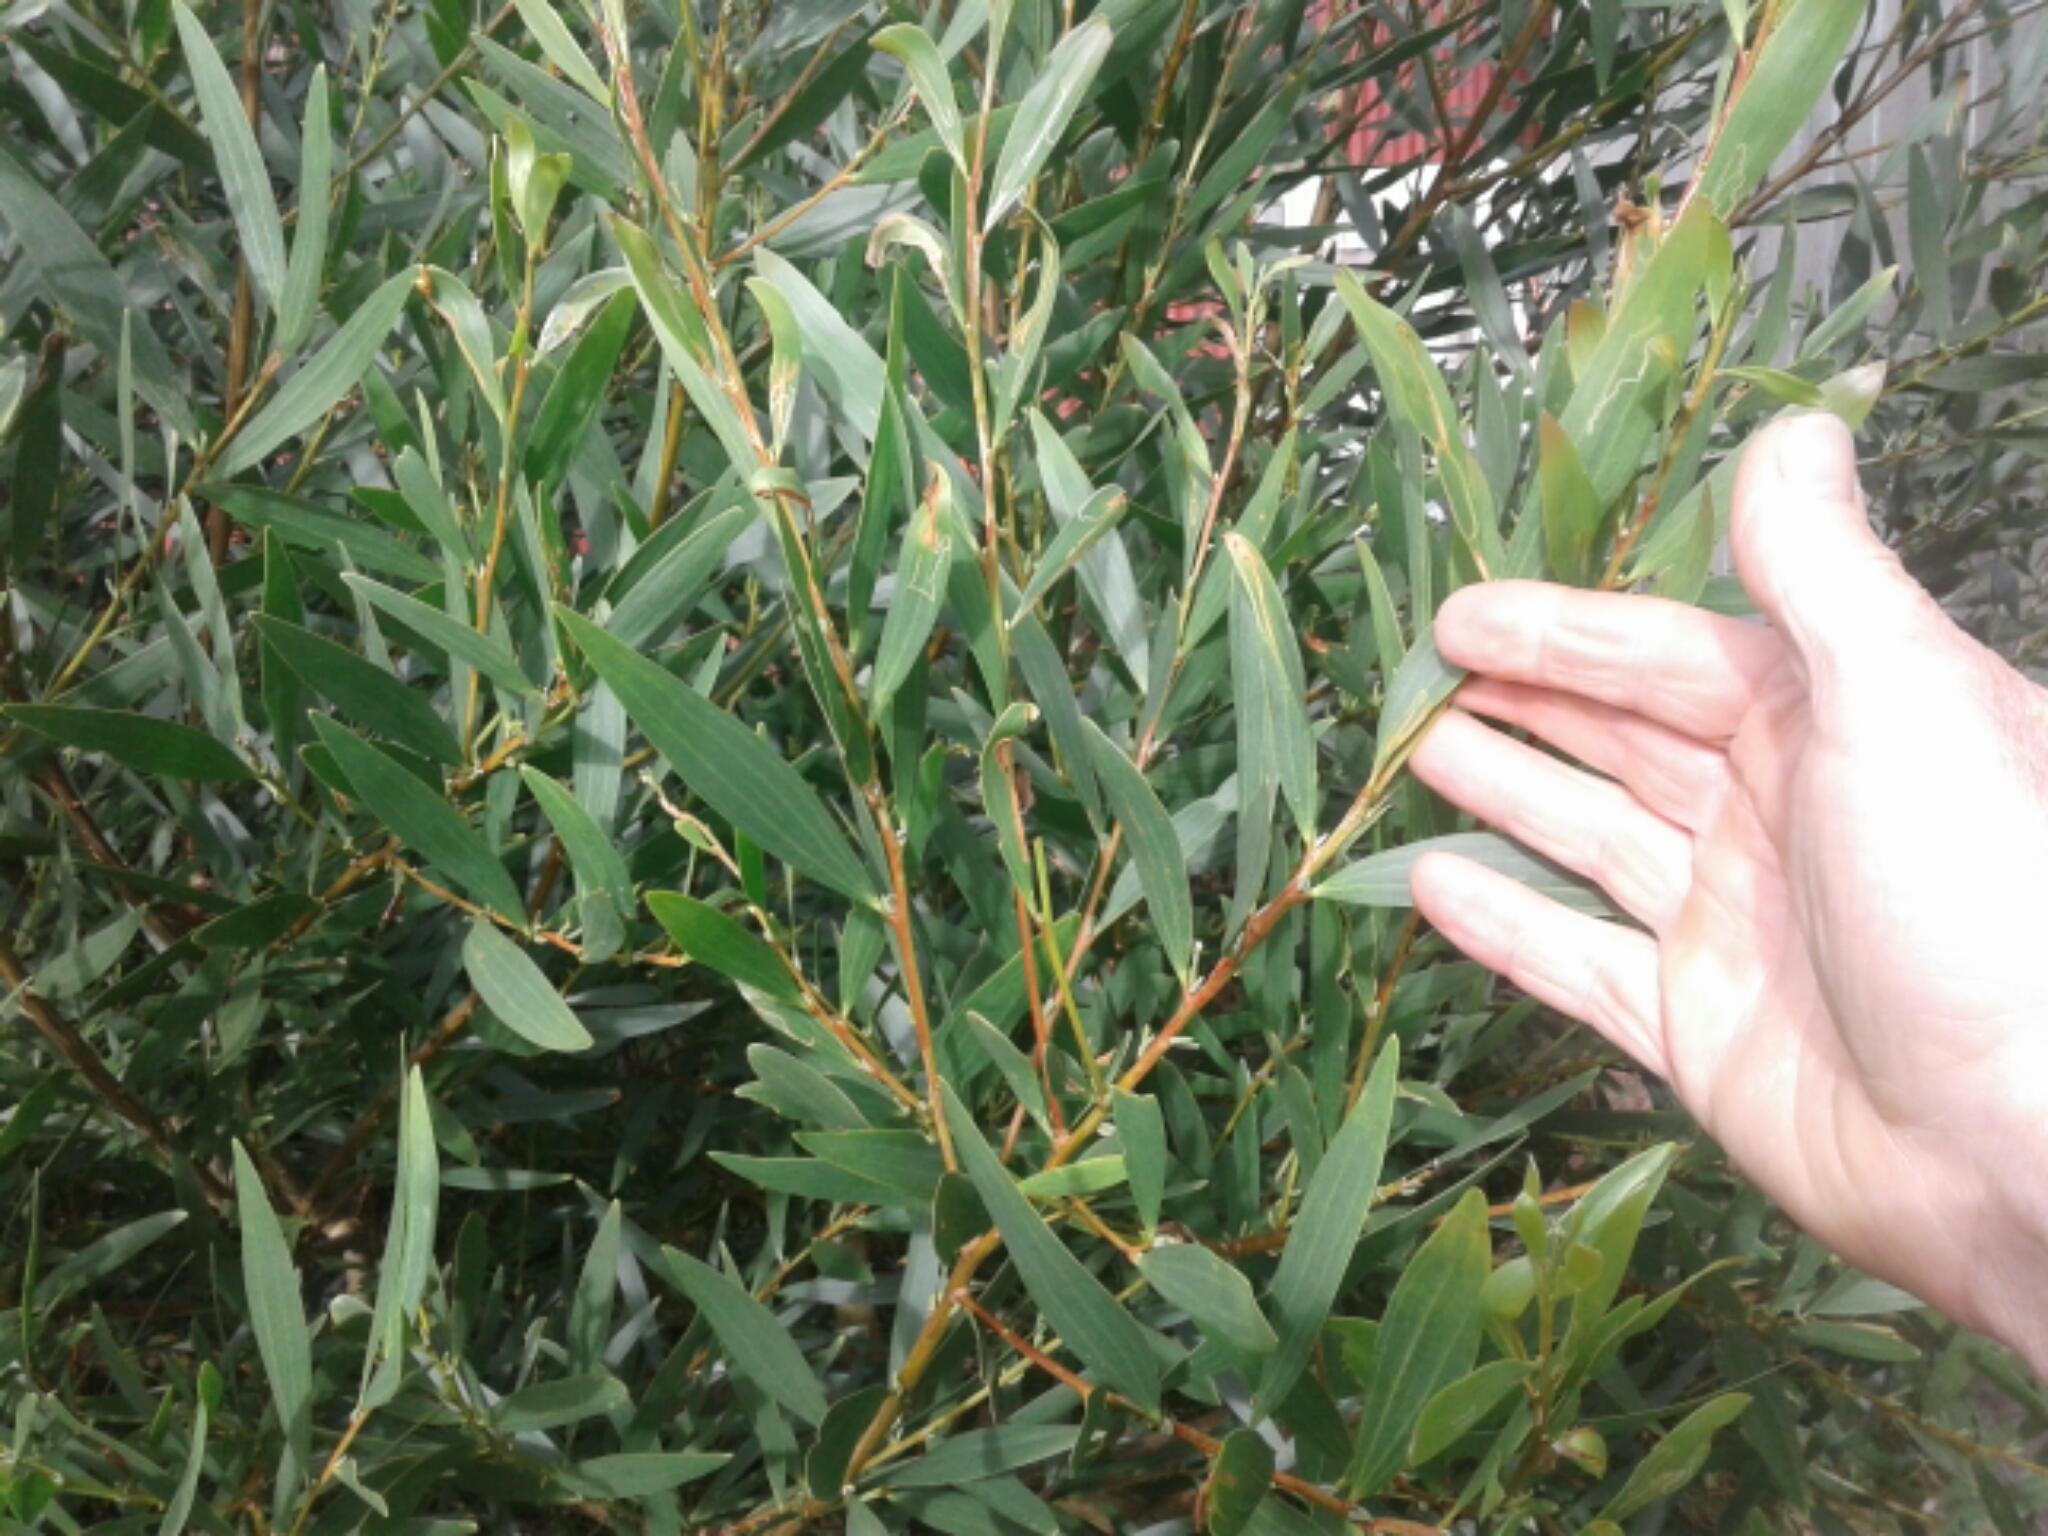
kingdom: Plantae
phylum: Tracheophyta
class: Magnoliopsida
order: Fabales
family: Fabaceae
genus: Acacia
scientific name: Acacia melanoxylon
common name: Blackwood
